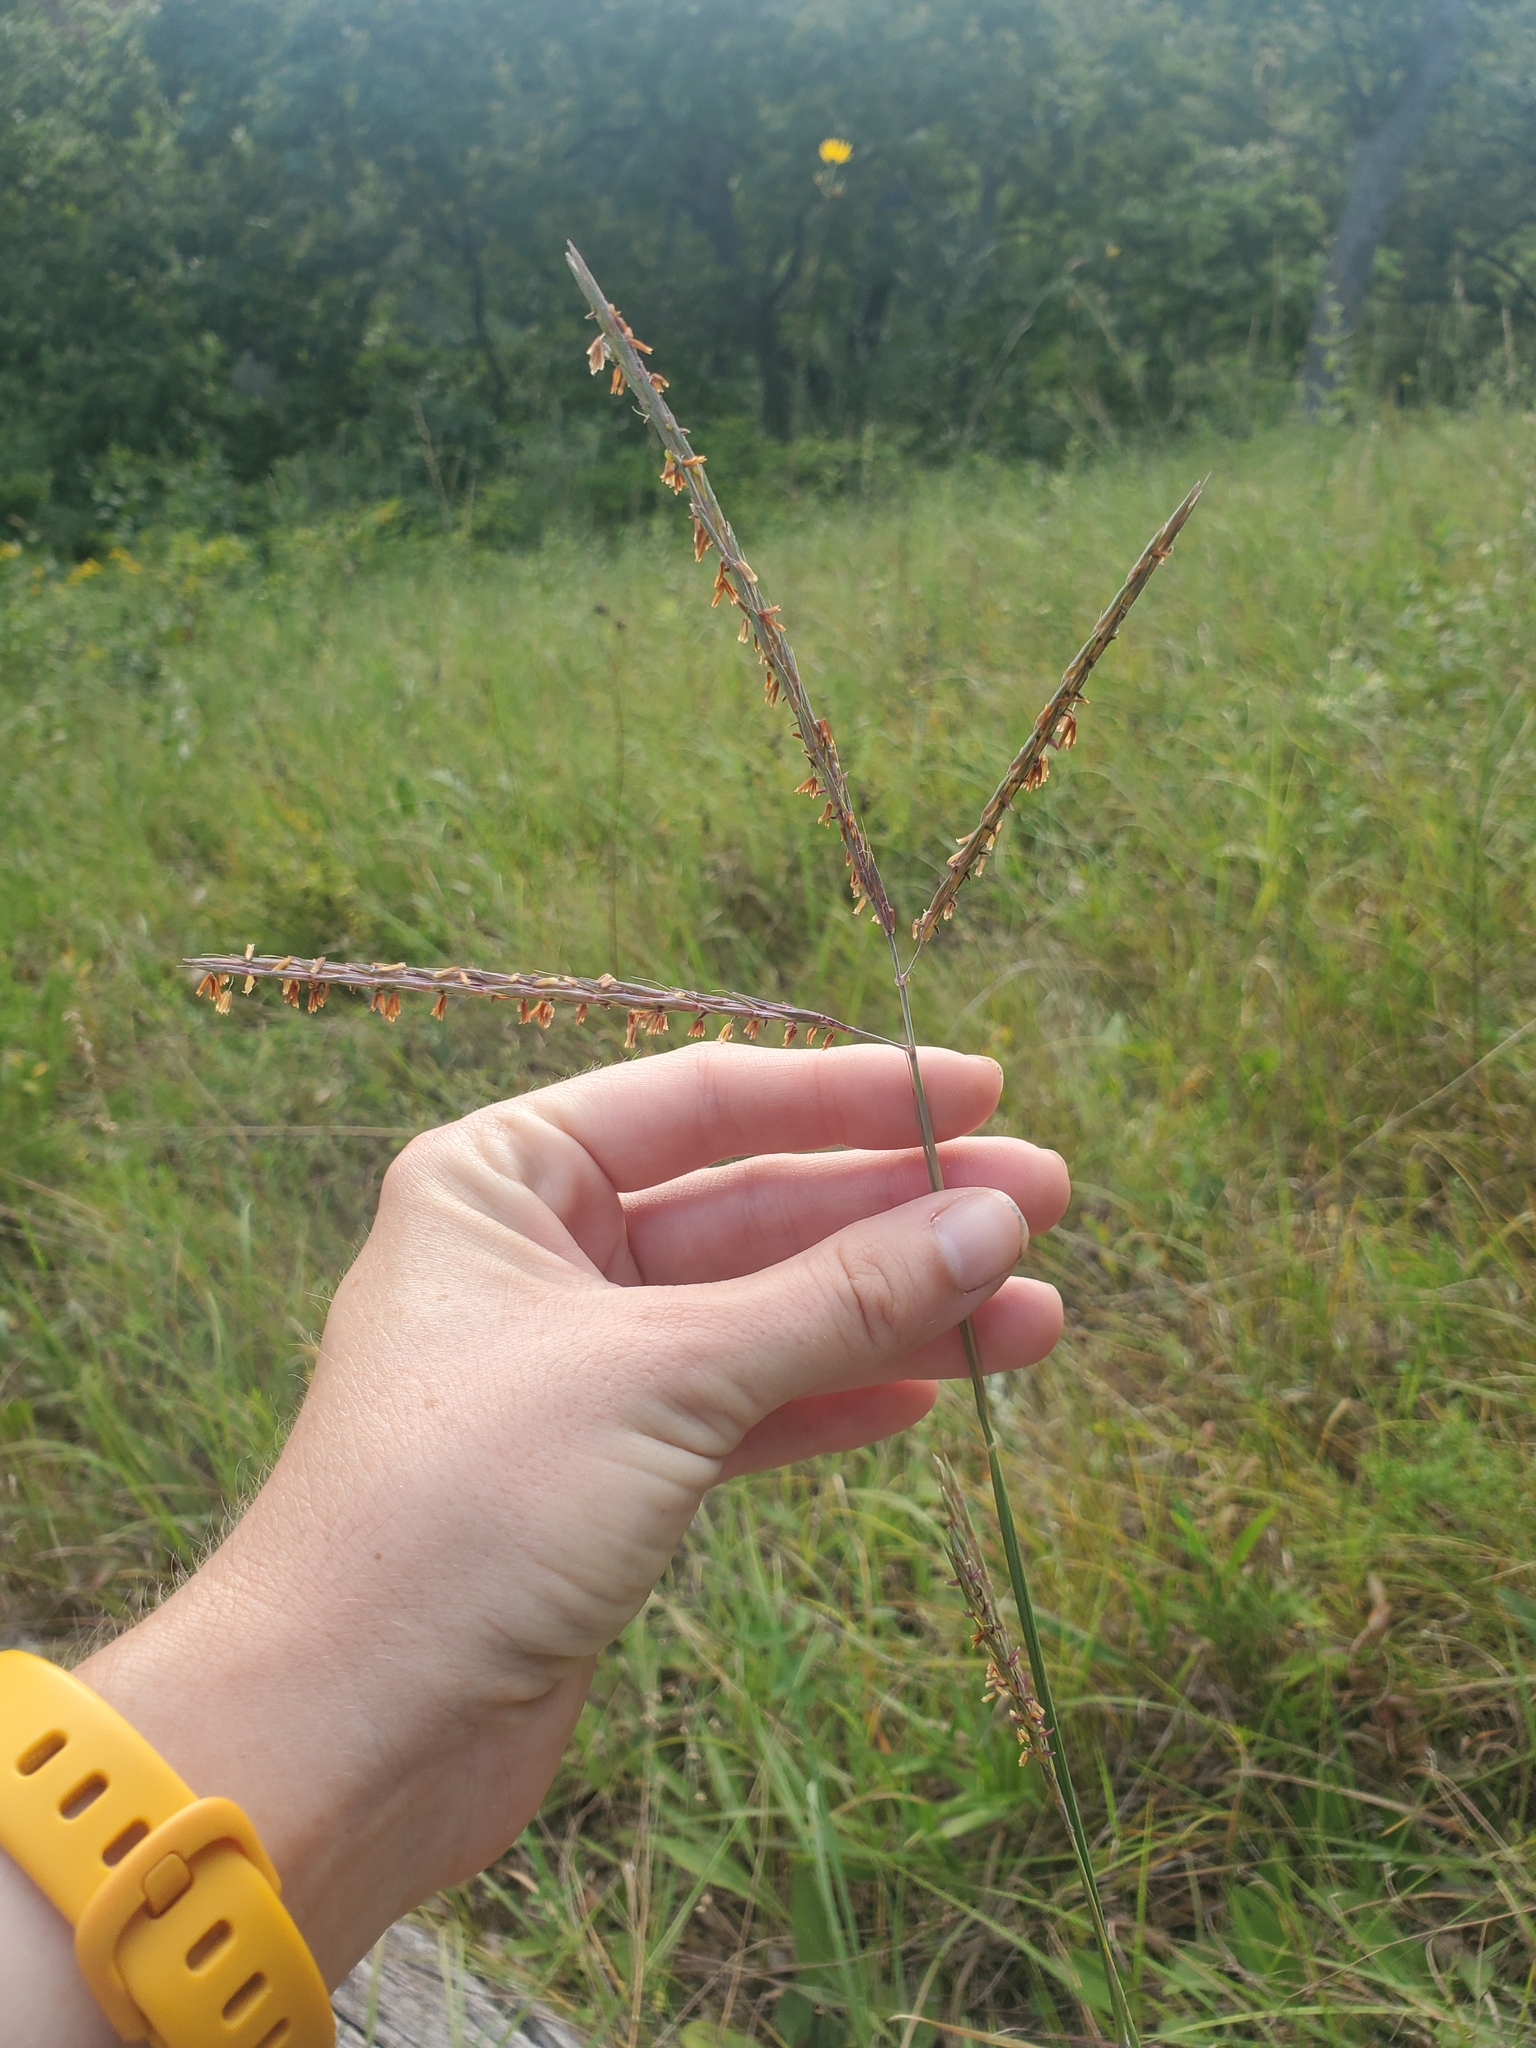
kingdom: Plantae
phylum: Tracheophyta
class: Liliopsida
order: Poales
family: Poaceae
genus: Andropogon
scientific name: Andropogon gerardi
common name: Big bluestem
